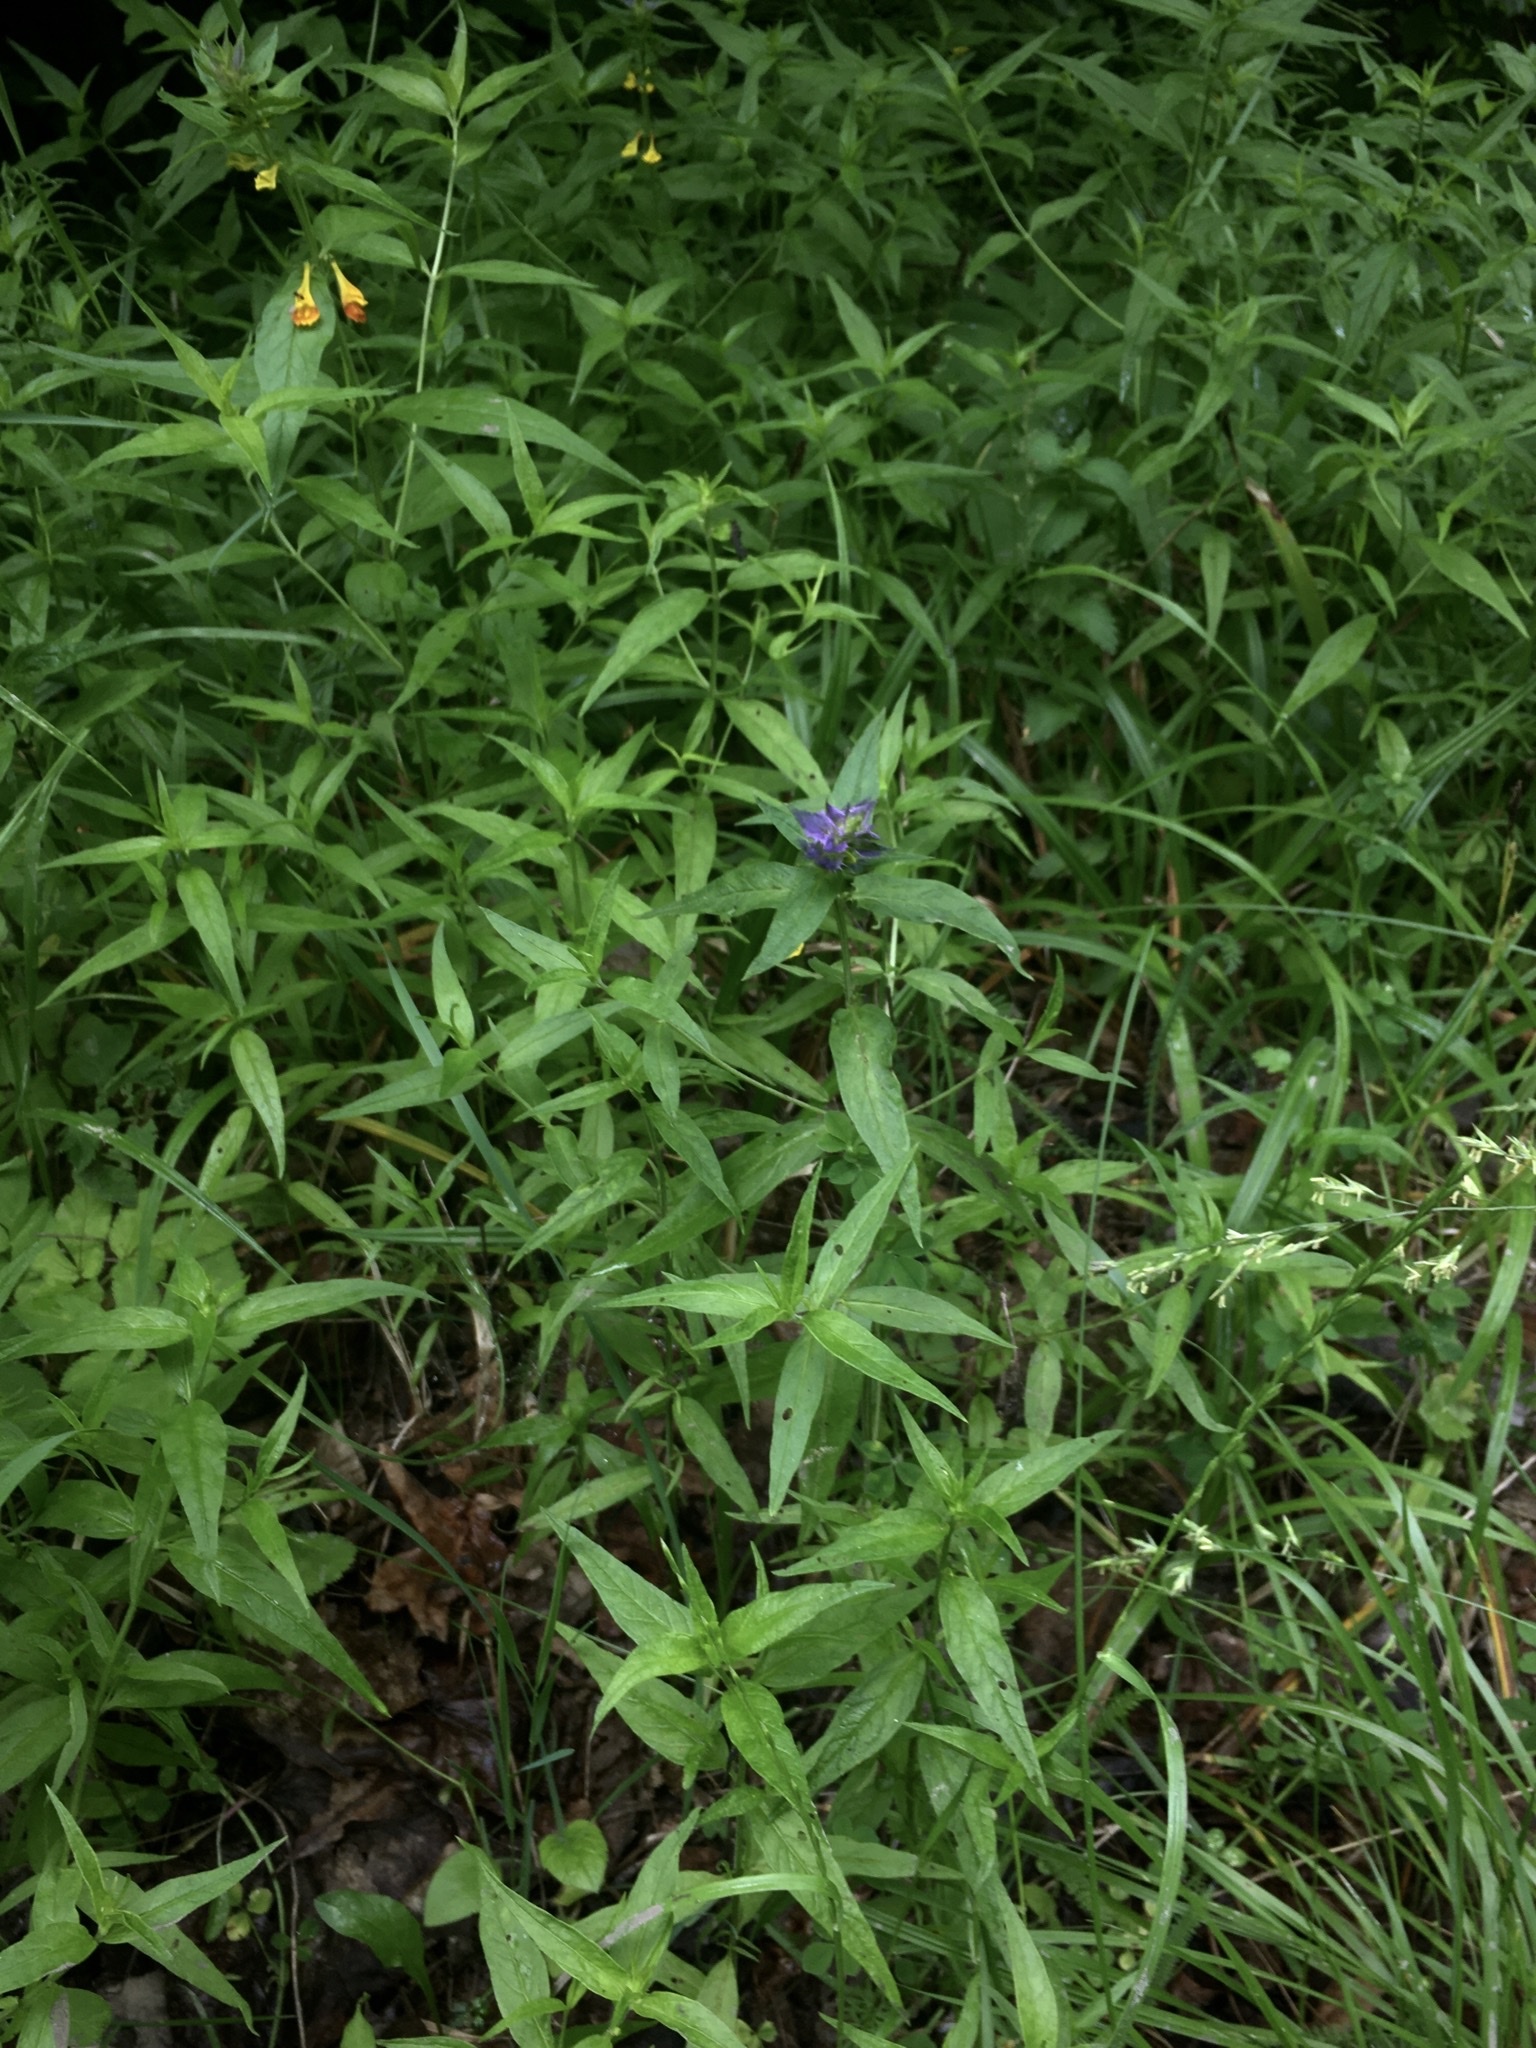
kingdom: Plantae
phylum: Tracheophyta
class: Magnoliopsida
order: Lamiales
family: Orobanchaceae
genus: Melampyrum
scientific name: Melampyrum nemorosum
